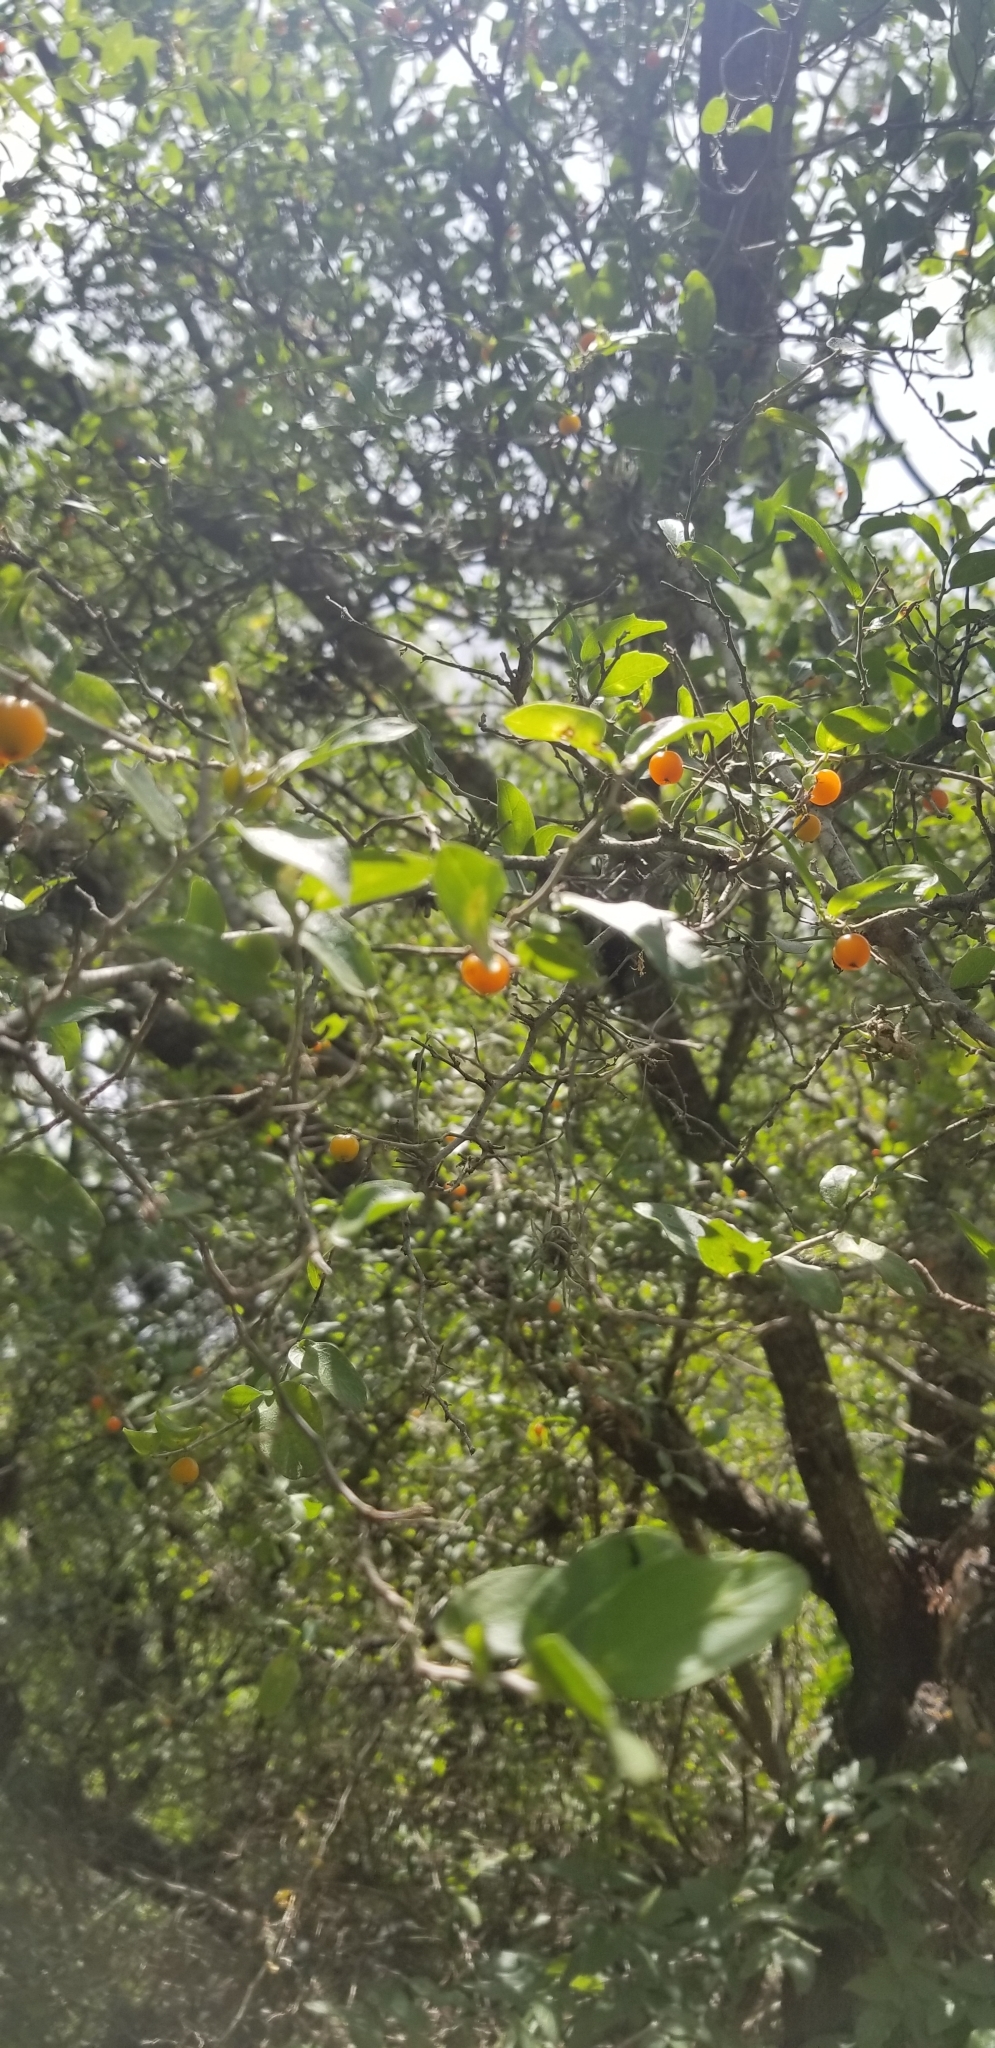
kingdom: Plantae
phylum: Tracheophyta
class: Magnoliopsida
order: Rosales
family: Cannabaceae
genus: Celtis
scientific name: Celtis pallida
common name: Desert hackberry
